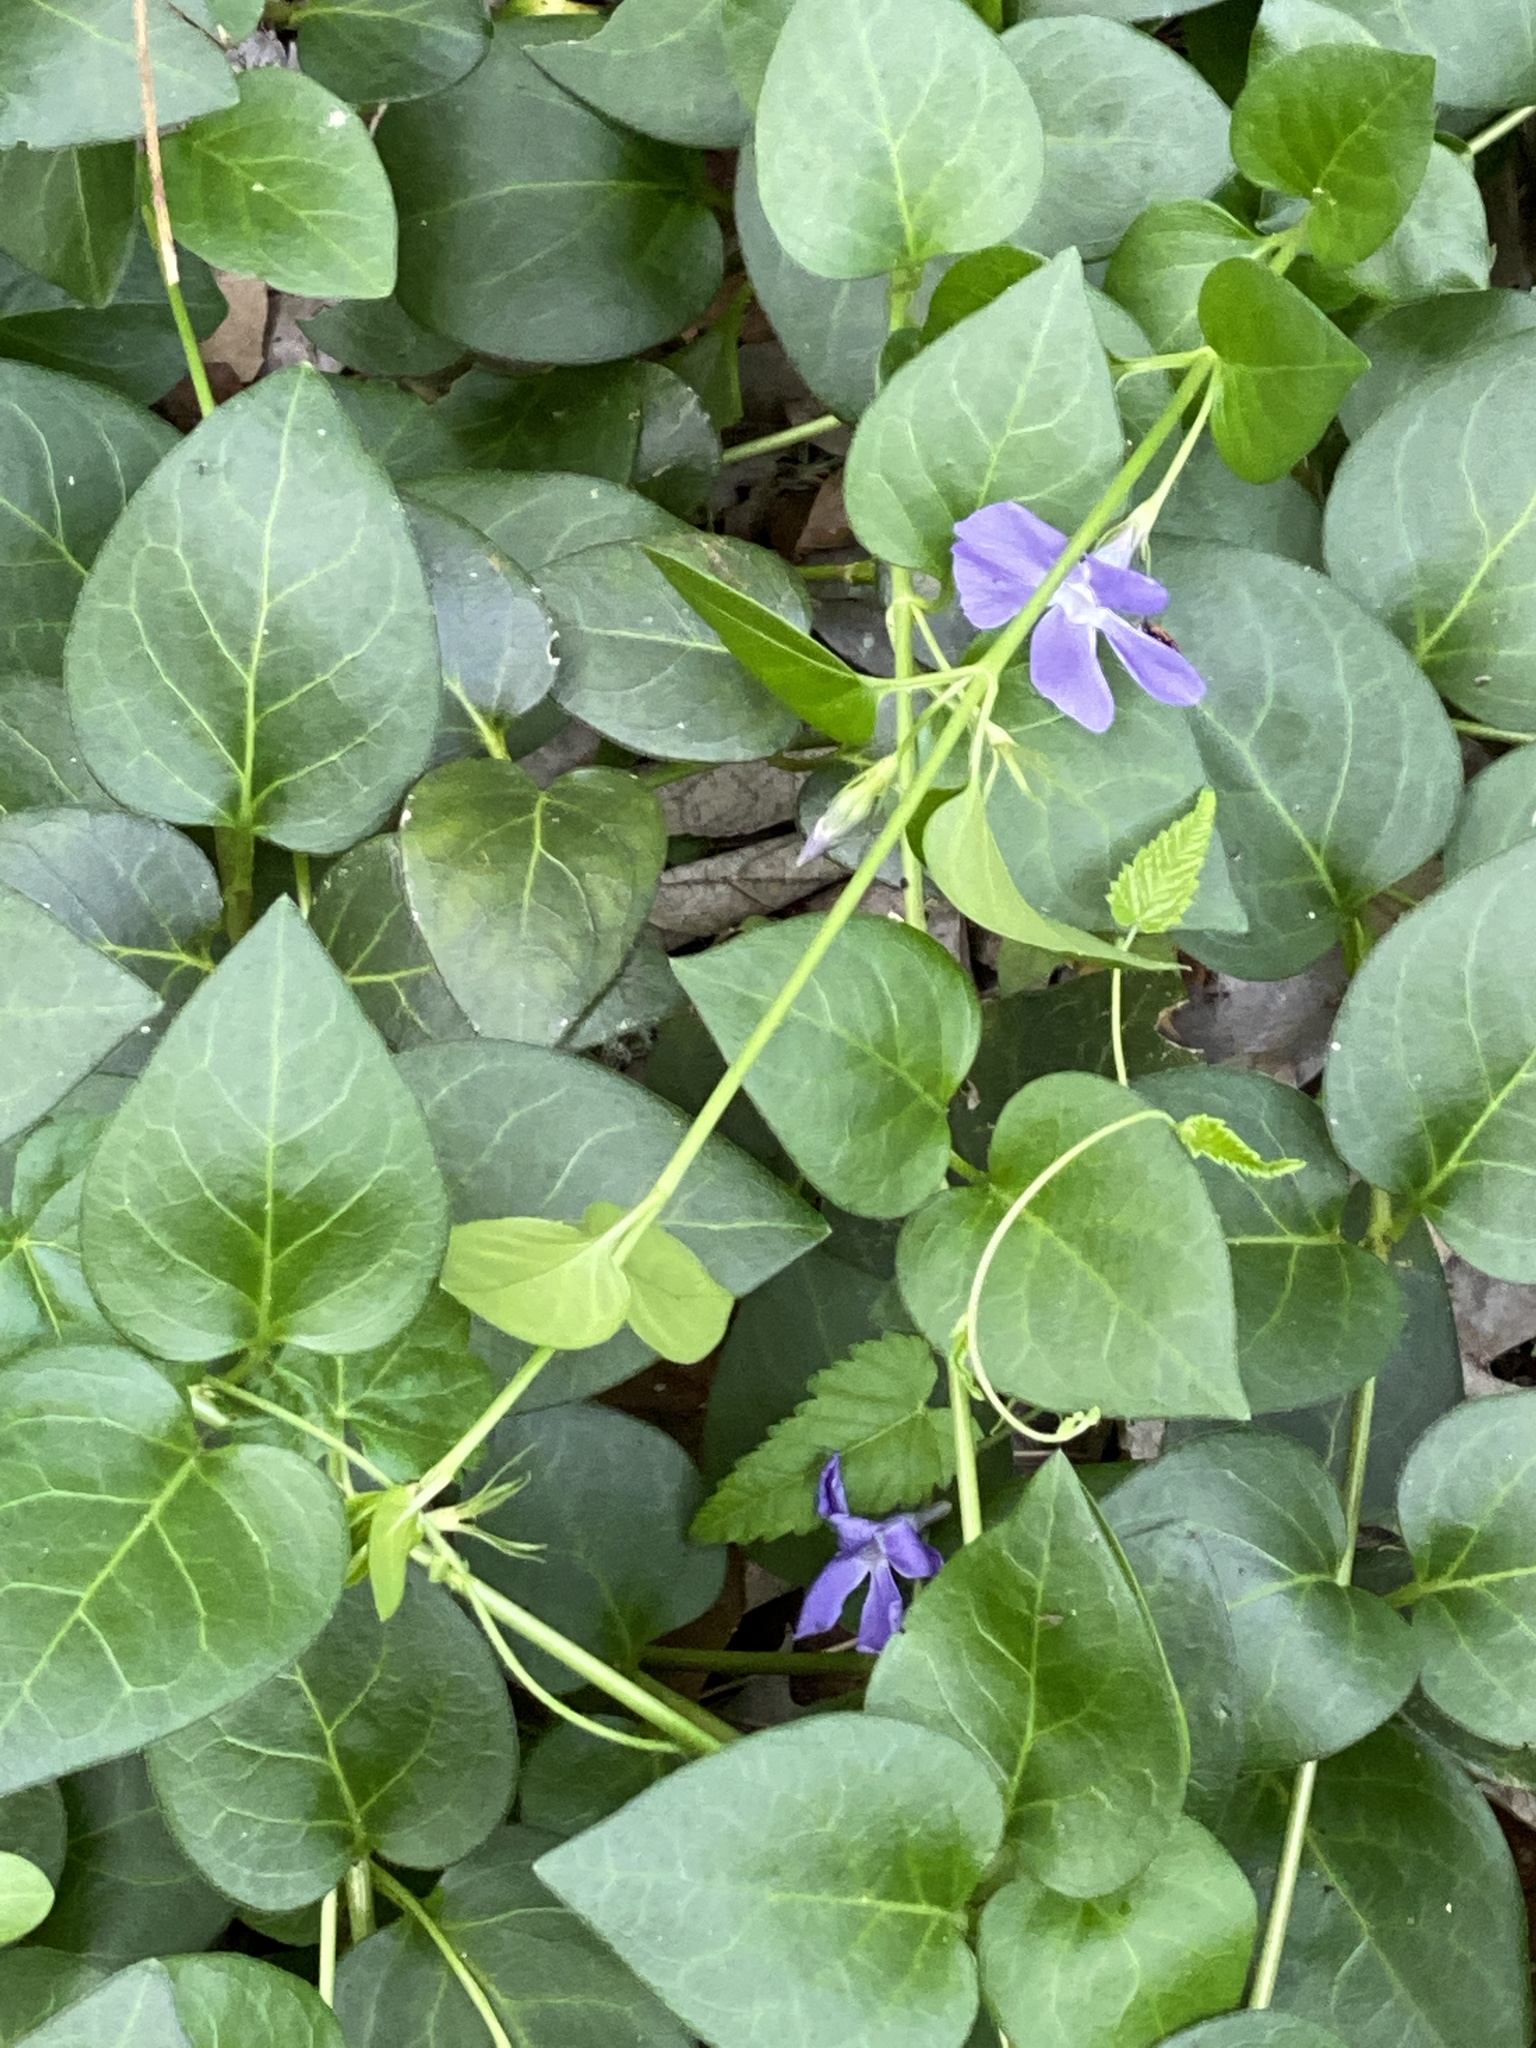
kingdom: Plantae
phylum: Tracheophyta
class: Magnoliopsida
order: Gentianales
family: Apocynaceae
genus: Vinca
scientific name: Vinca major
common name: Greater periwinkle
